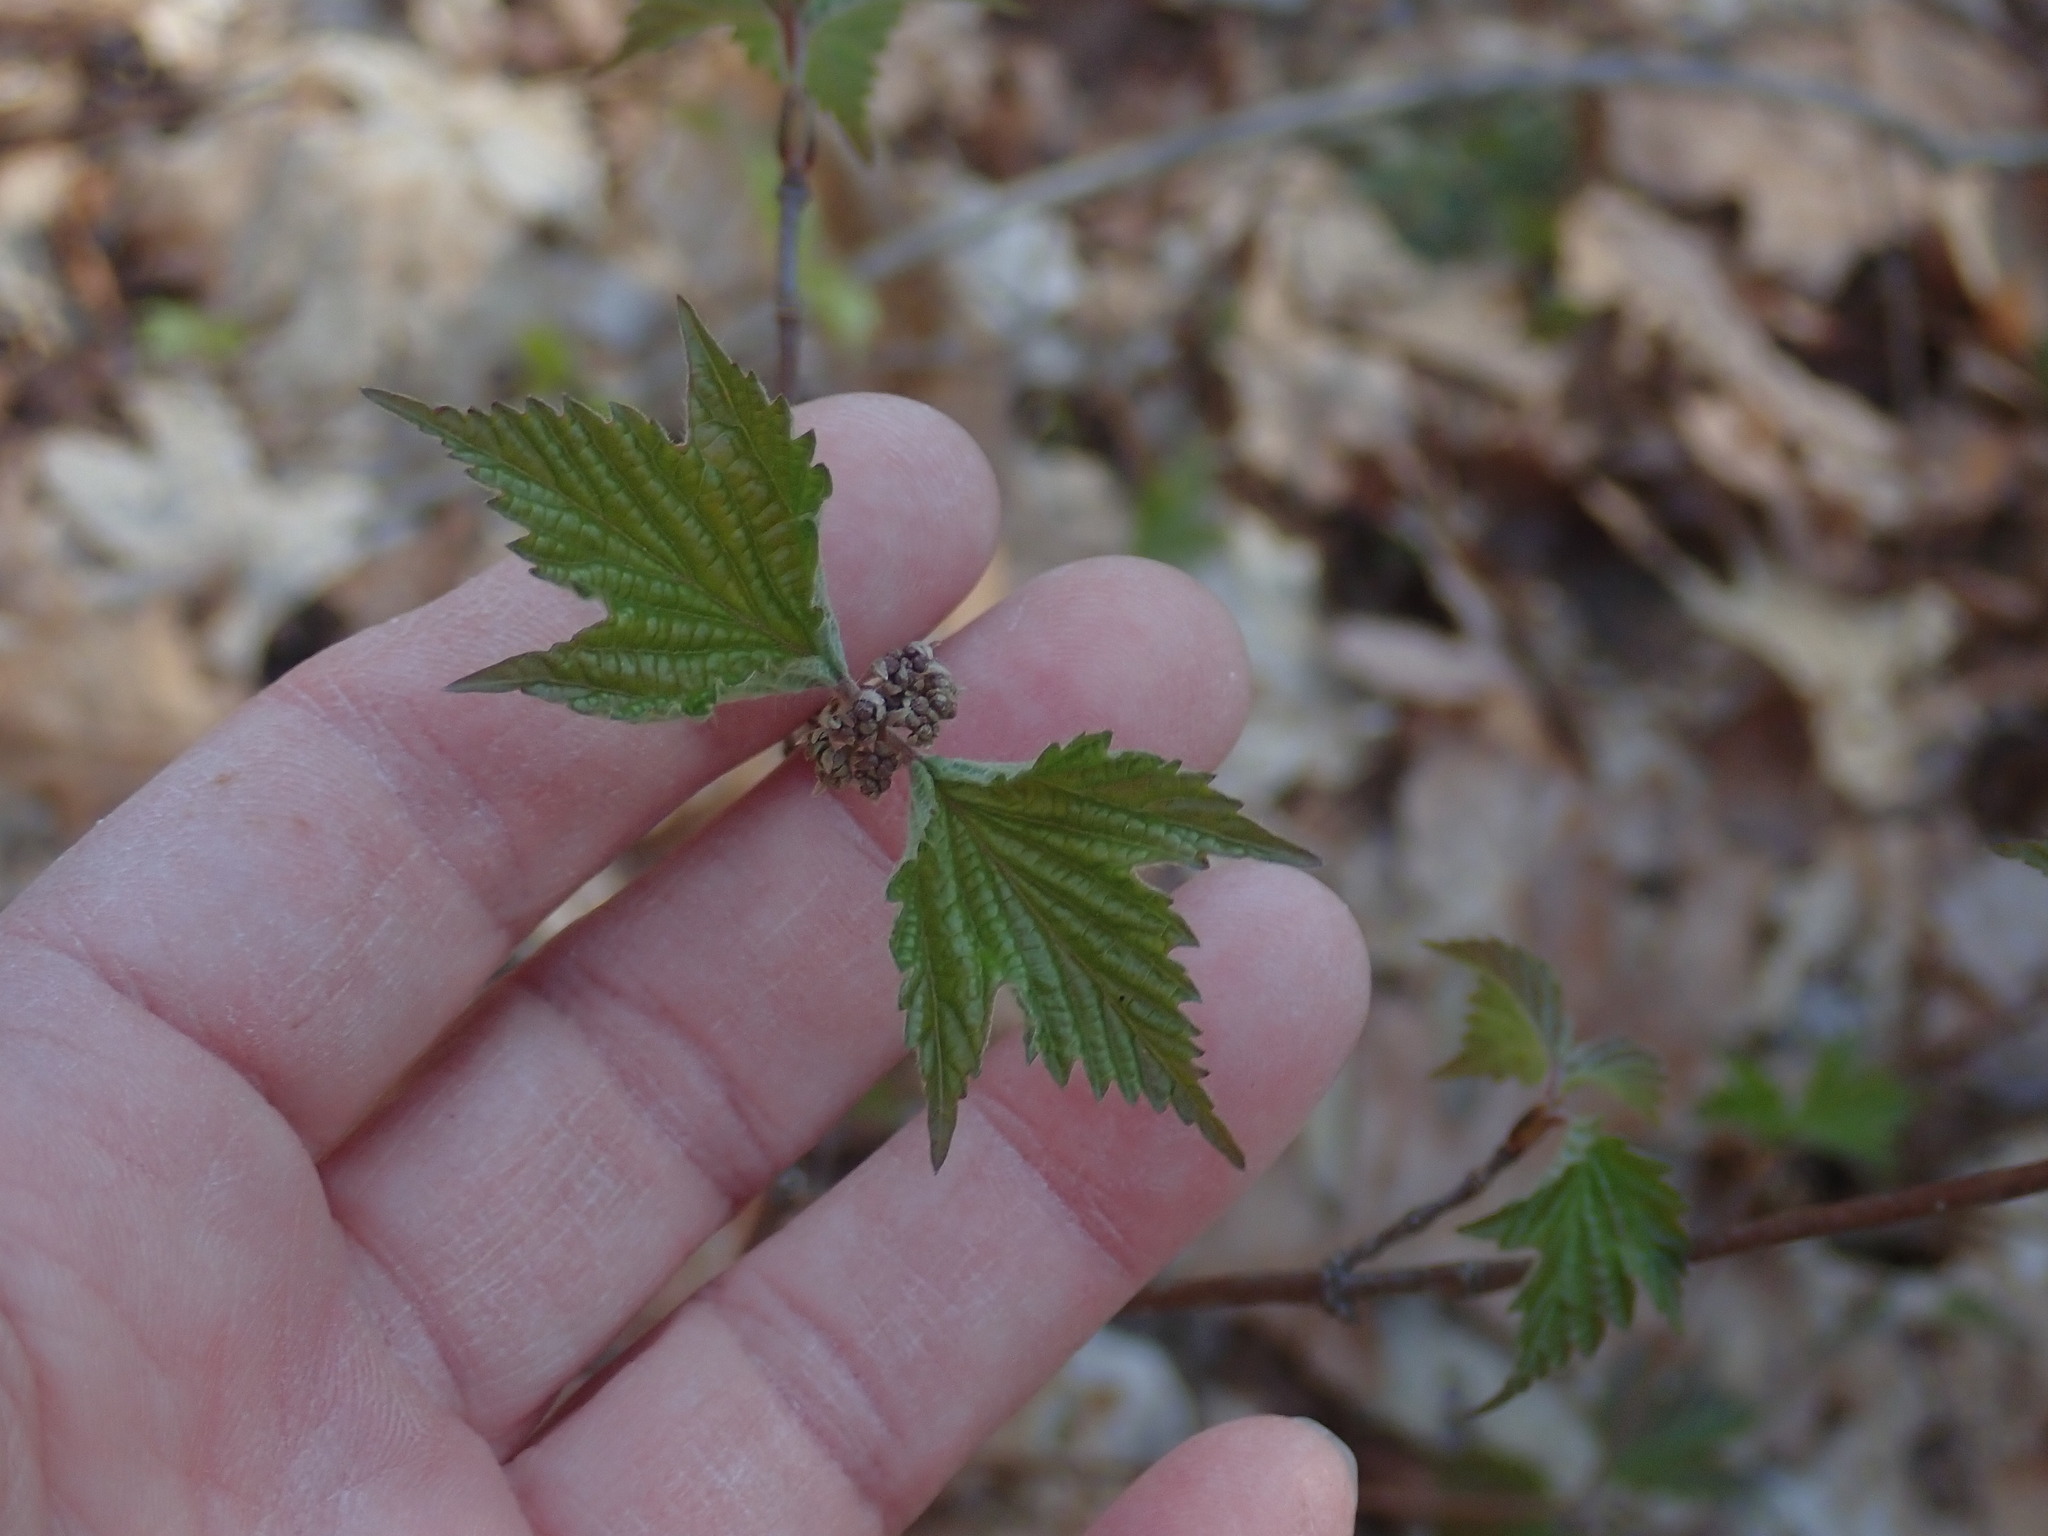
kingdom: Plantae
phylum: Tracheophyta
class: Magnoliopsida
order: Dipsacales
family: Viburnaceae
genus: Viburnum
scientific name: Viburnum acerifolium
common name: Dockmackie
